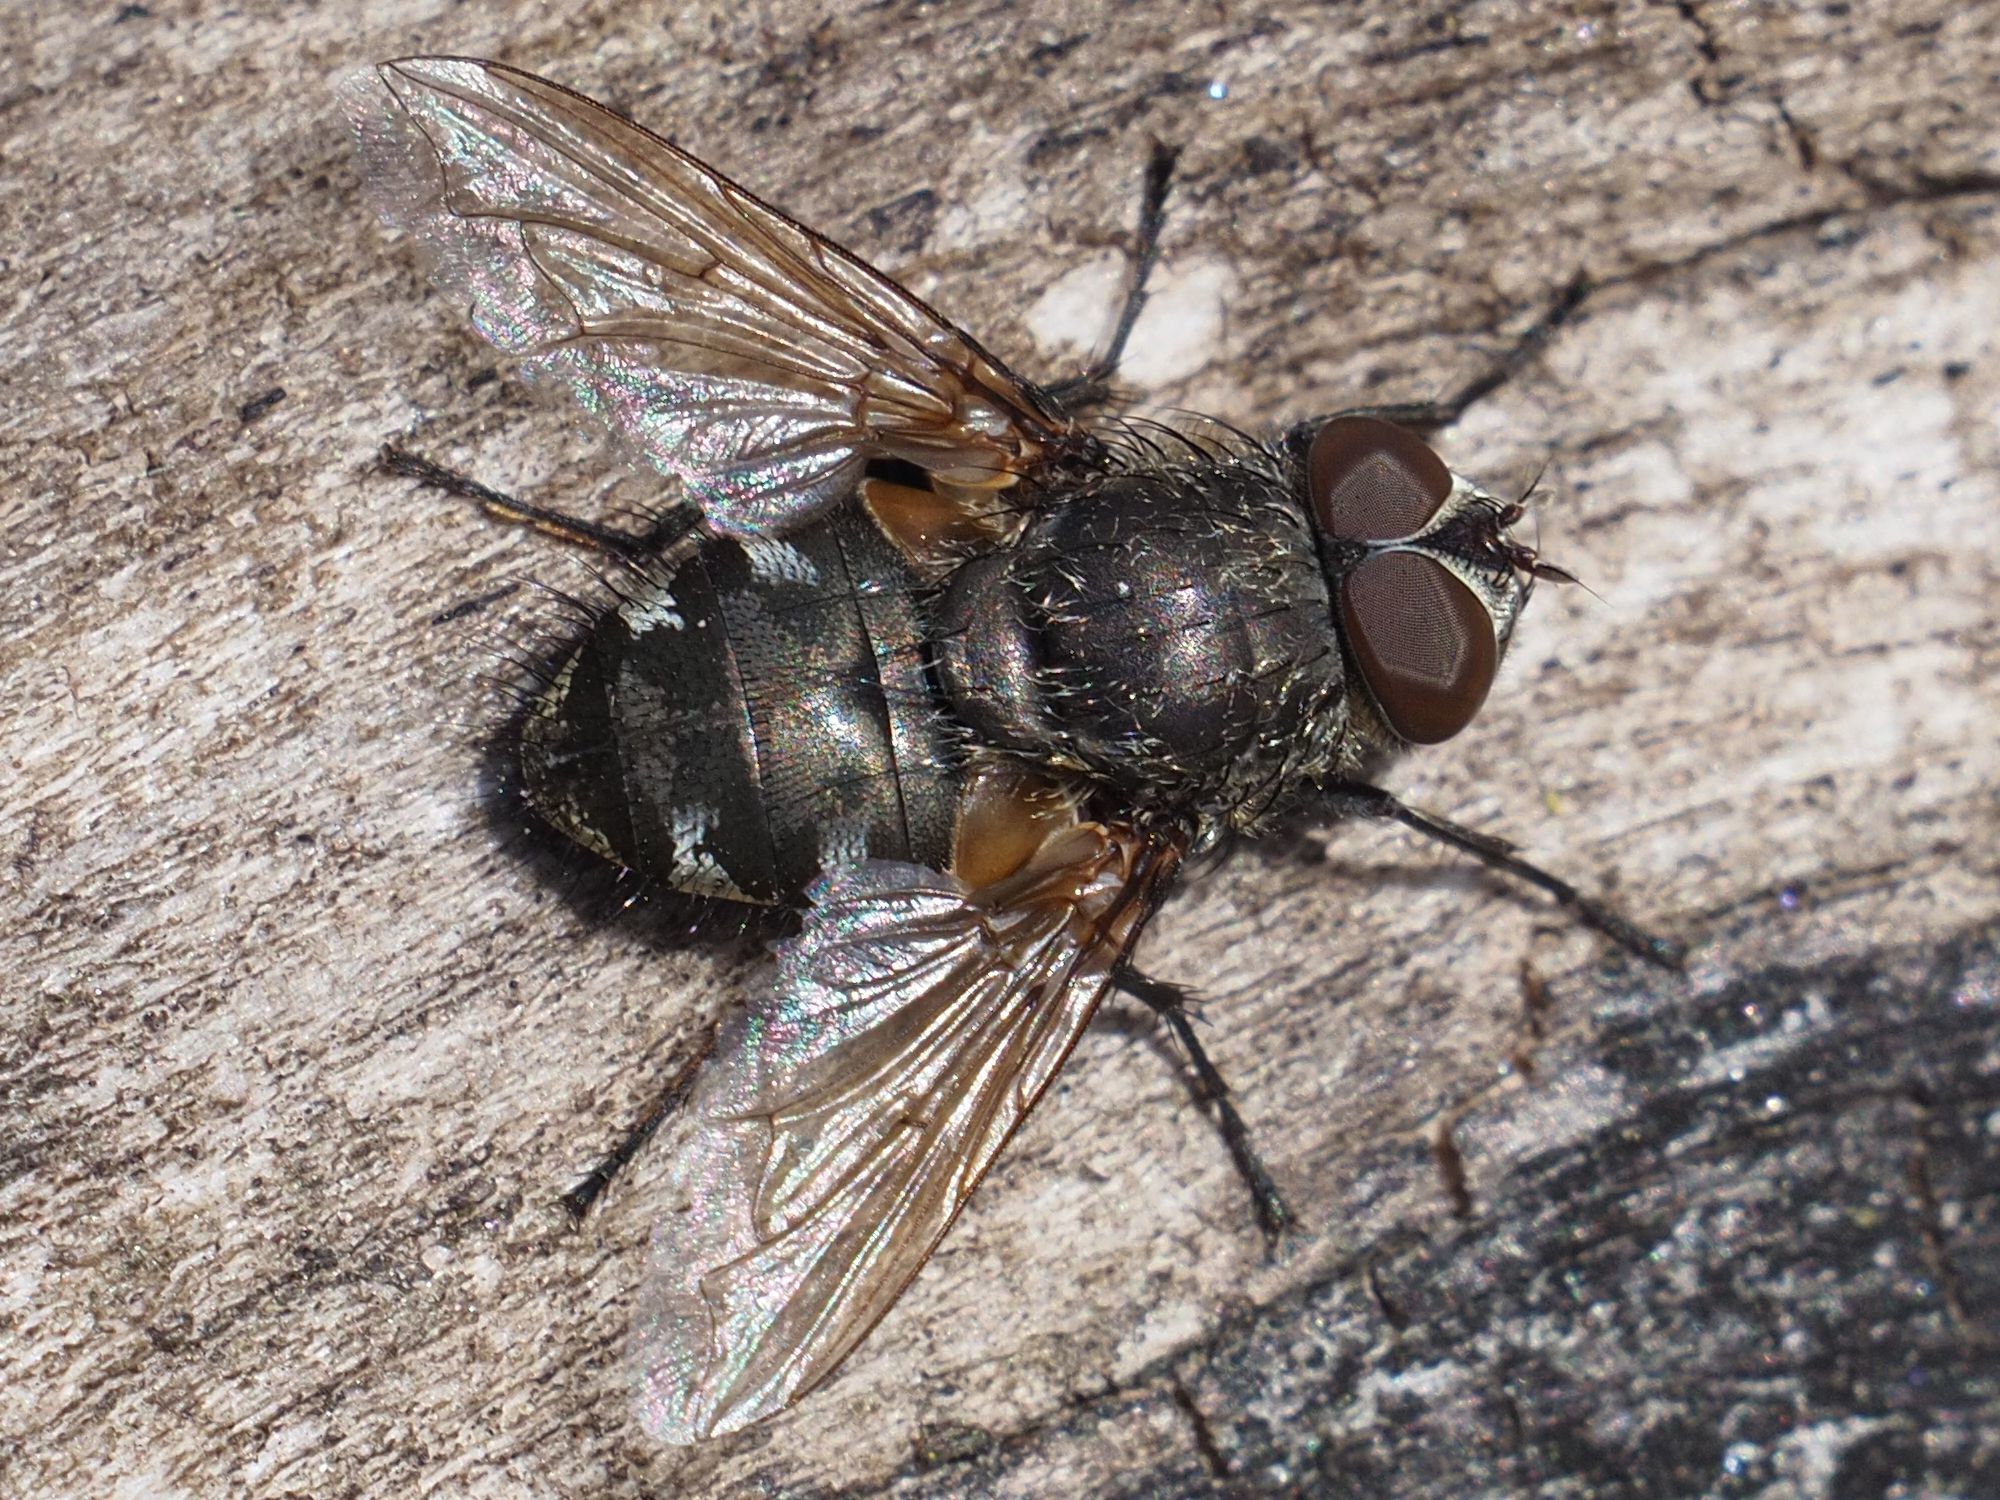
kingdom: Animalia
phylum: Arthropoda
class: Insecta
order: Diptera
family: Polleniidae
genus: Pollenia
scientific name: Pollenia angustigena
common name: Narrow-cheeked clusterfly
